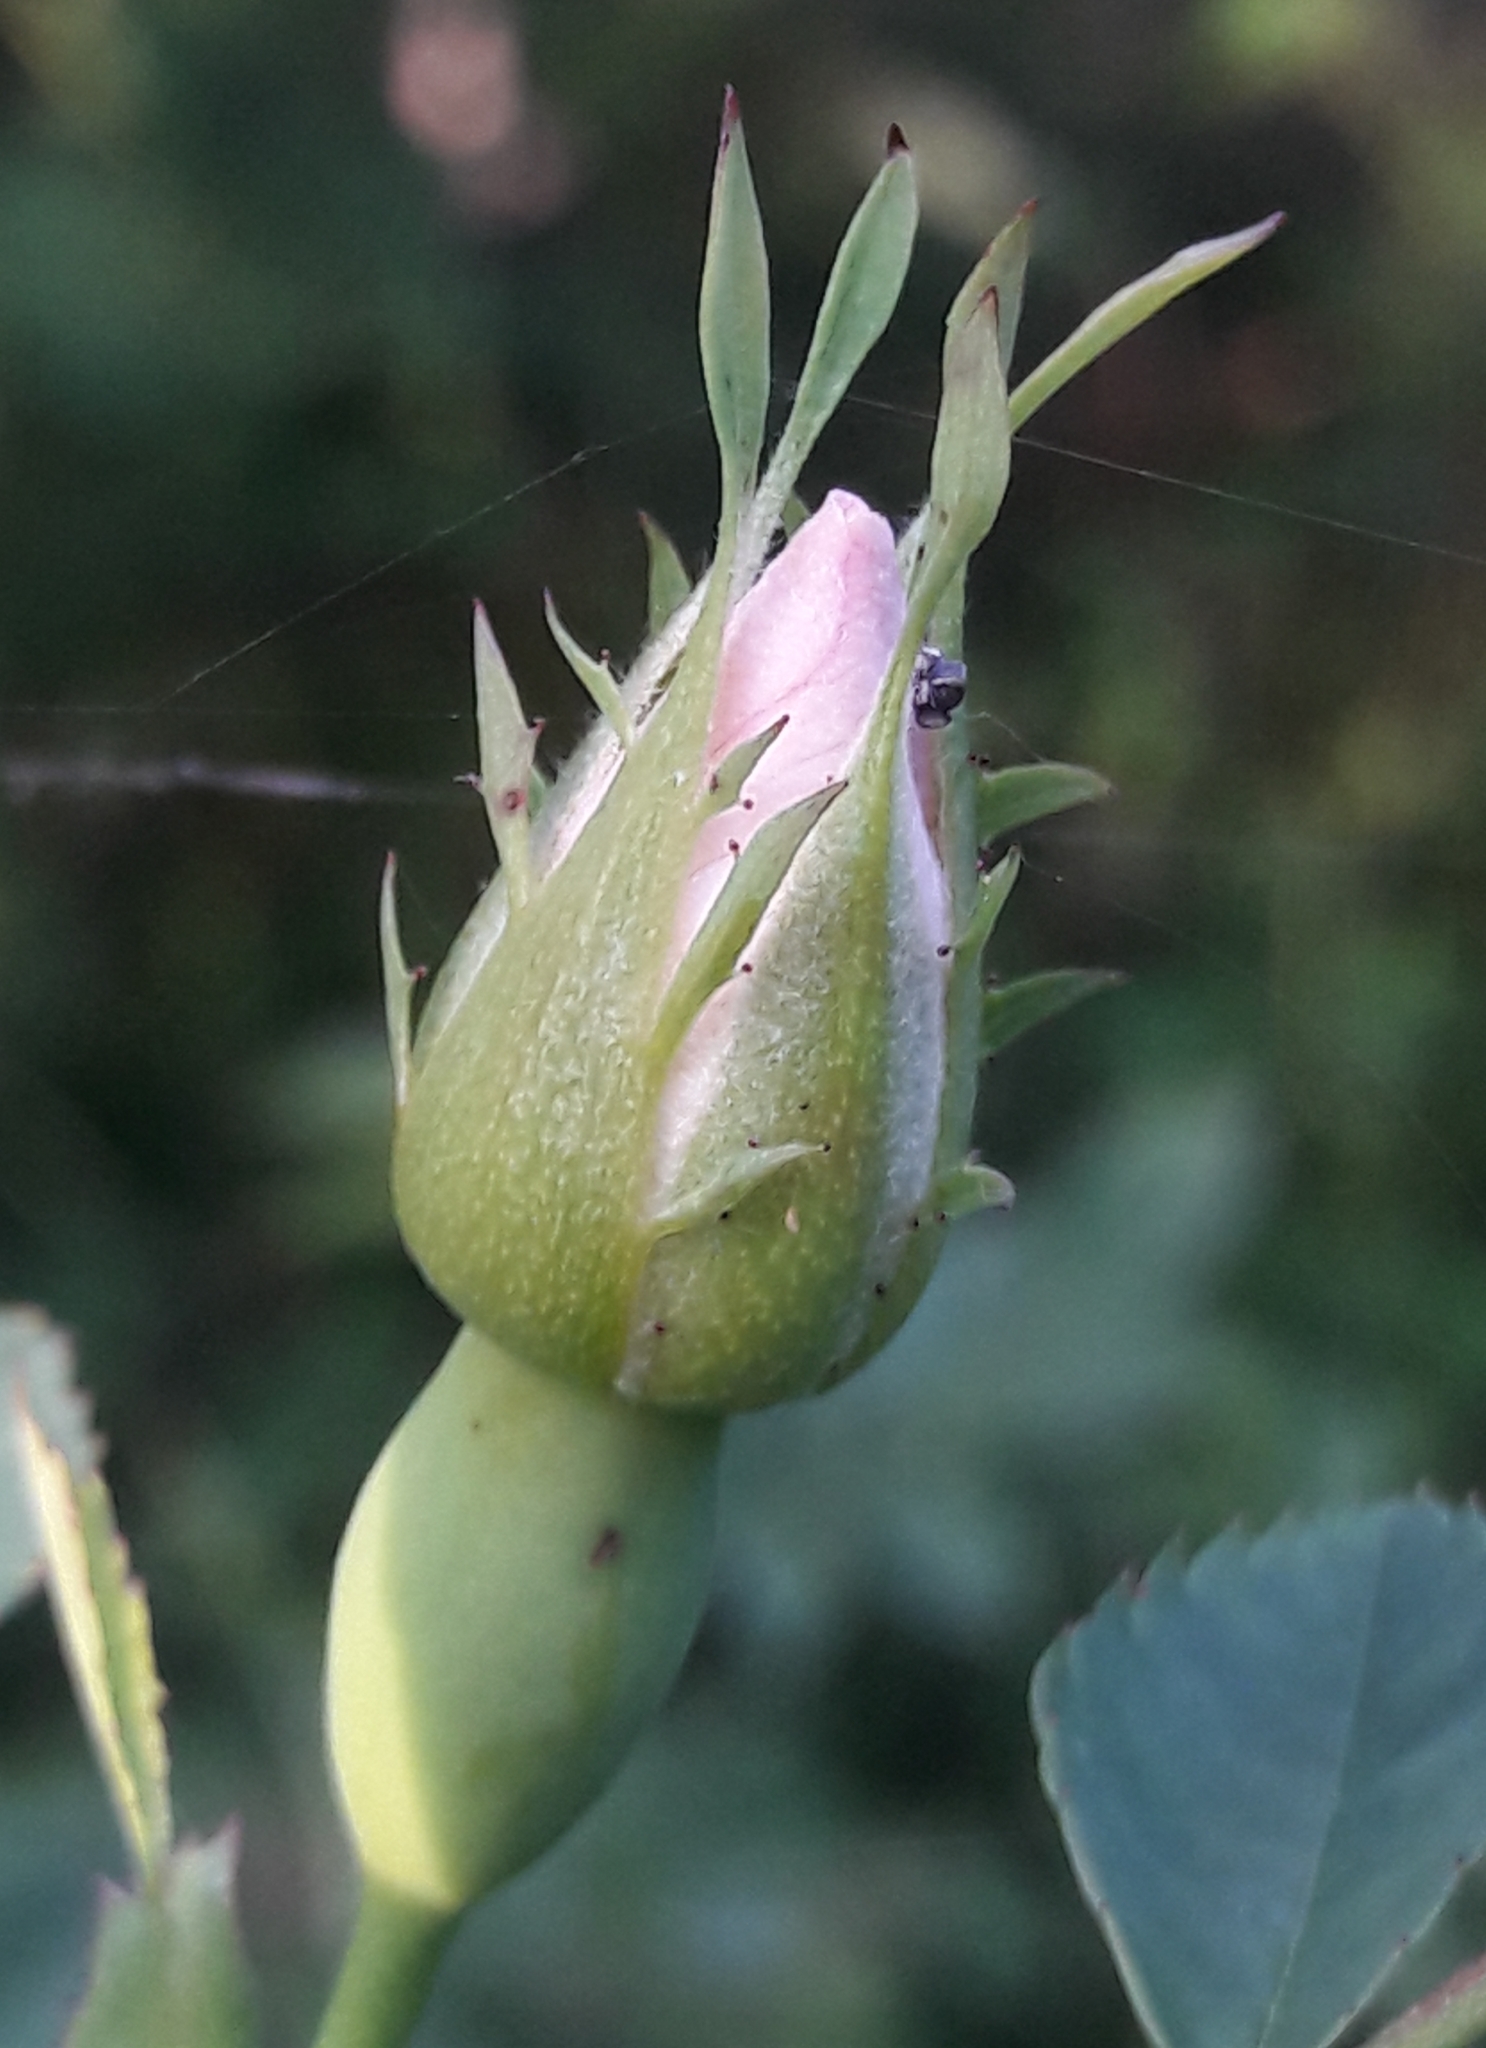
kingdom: Plantae
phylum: Tracheophyta
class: Magnoliopsida
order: Rosales
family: Rosaceae
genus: Rosa
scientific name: Rosa canina
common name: Dog rose
